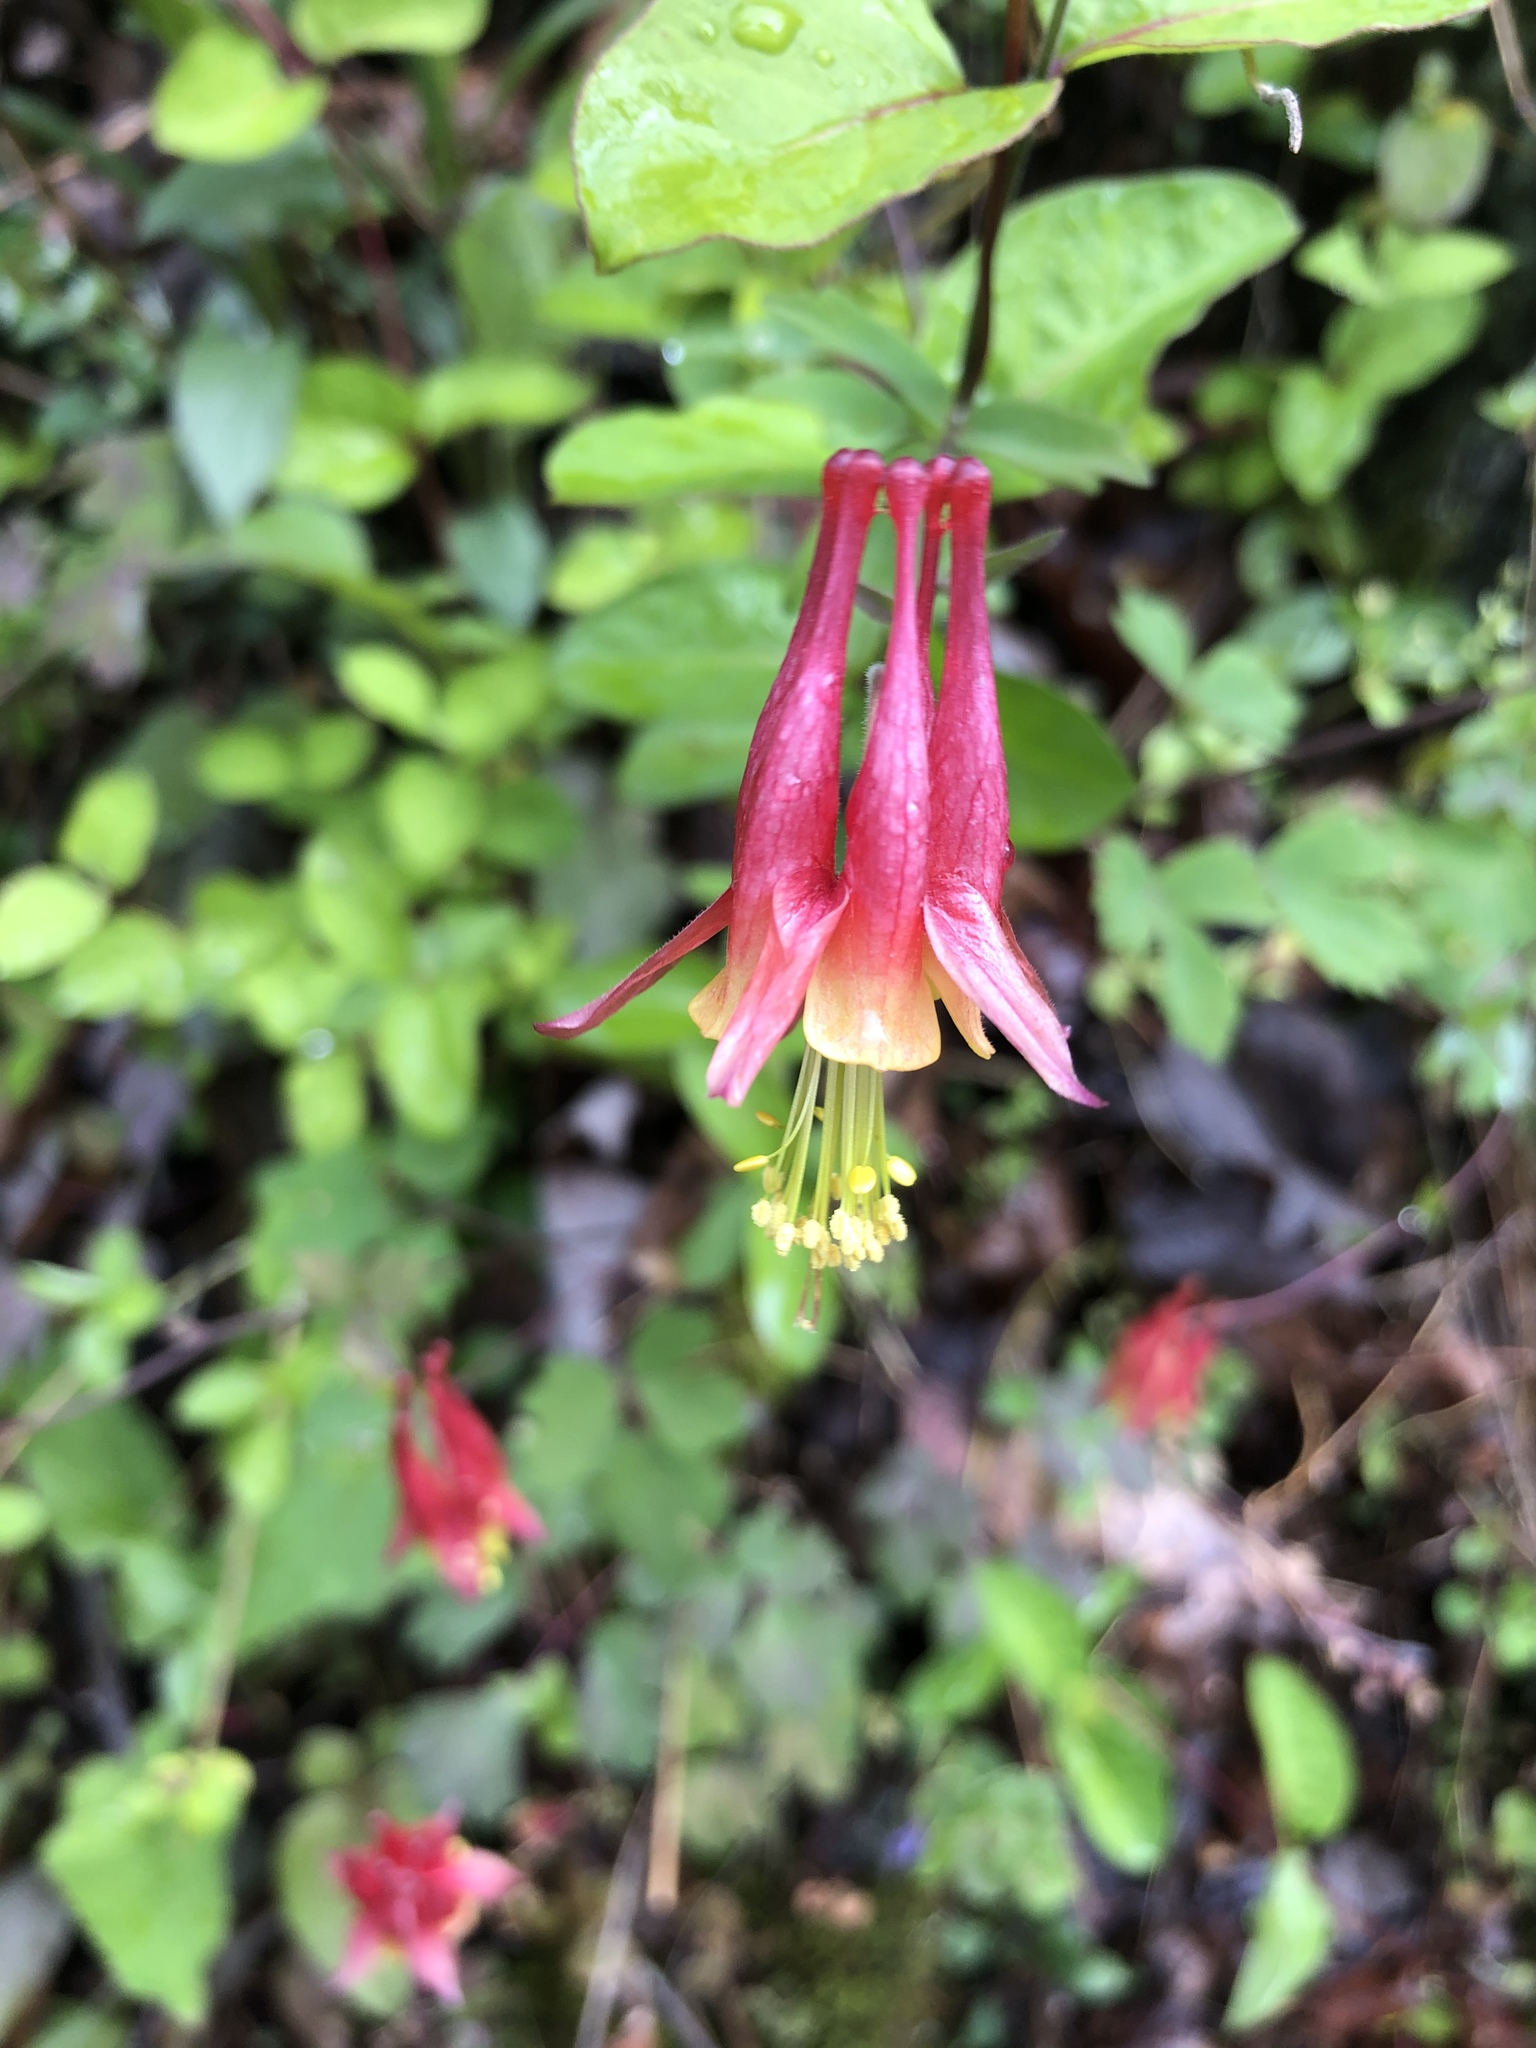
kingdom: Plantae
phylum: Tracheophyta
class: Magnoliopsida
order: Ranunculales
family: Ranunculaceae
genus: Aquilegia
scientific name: Aquilegia canadensis
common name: American columbine
